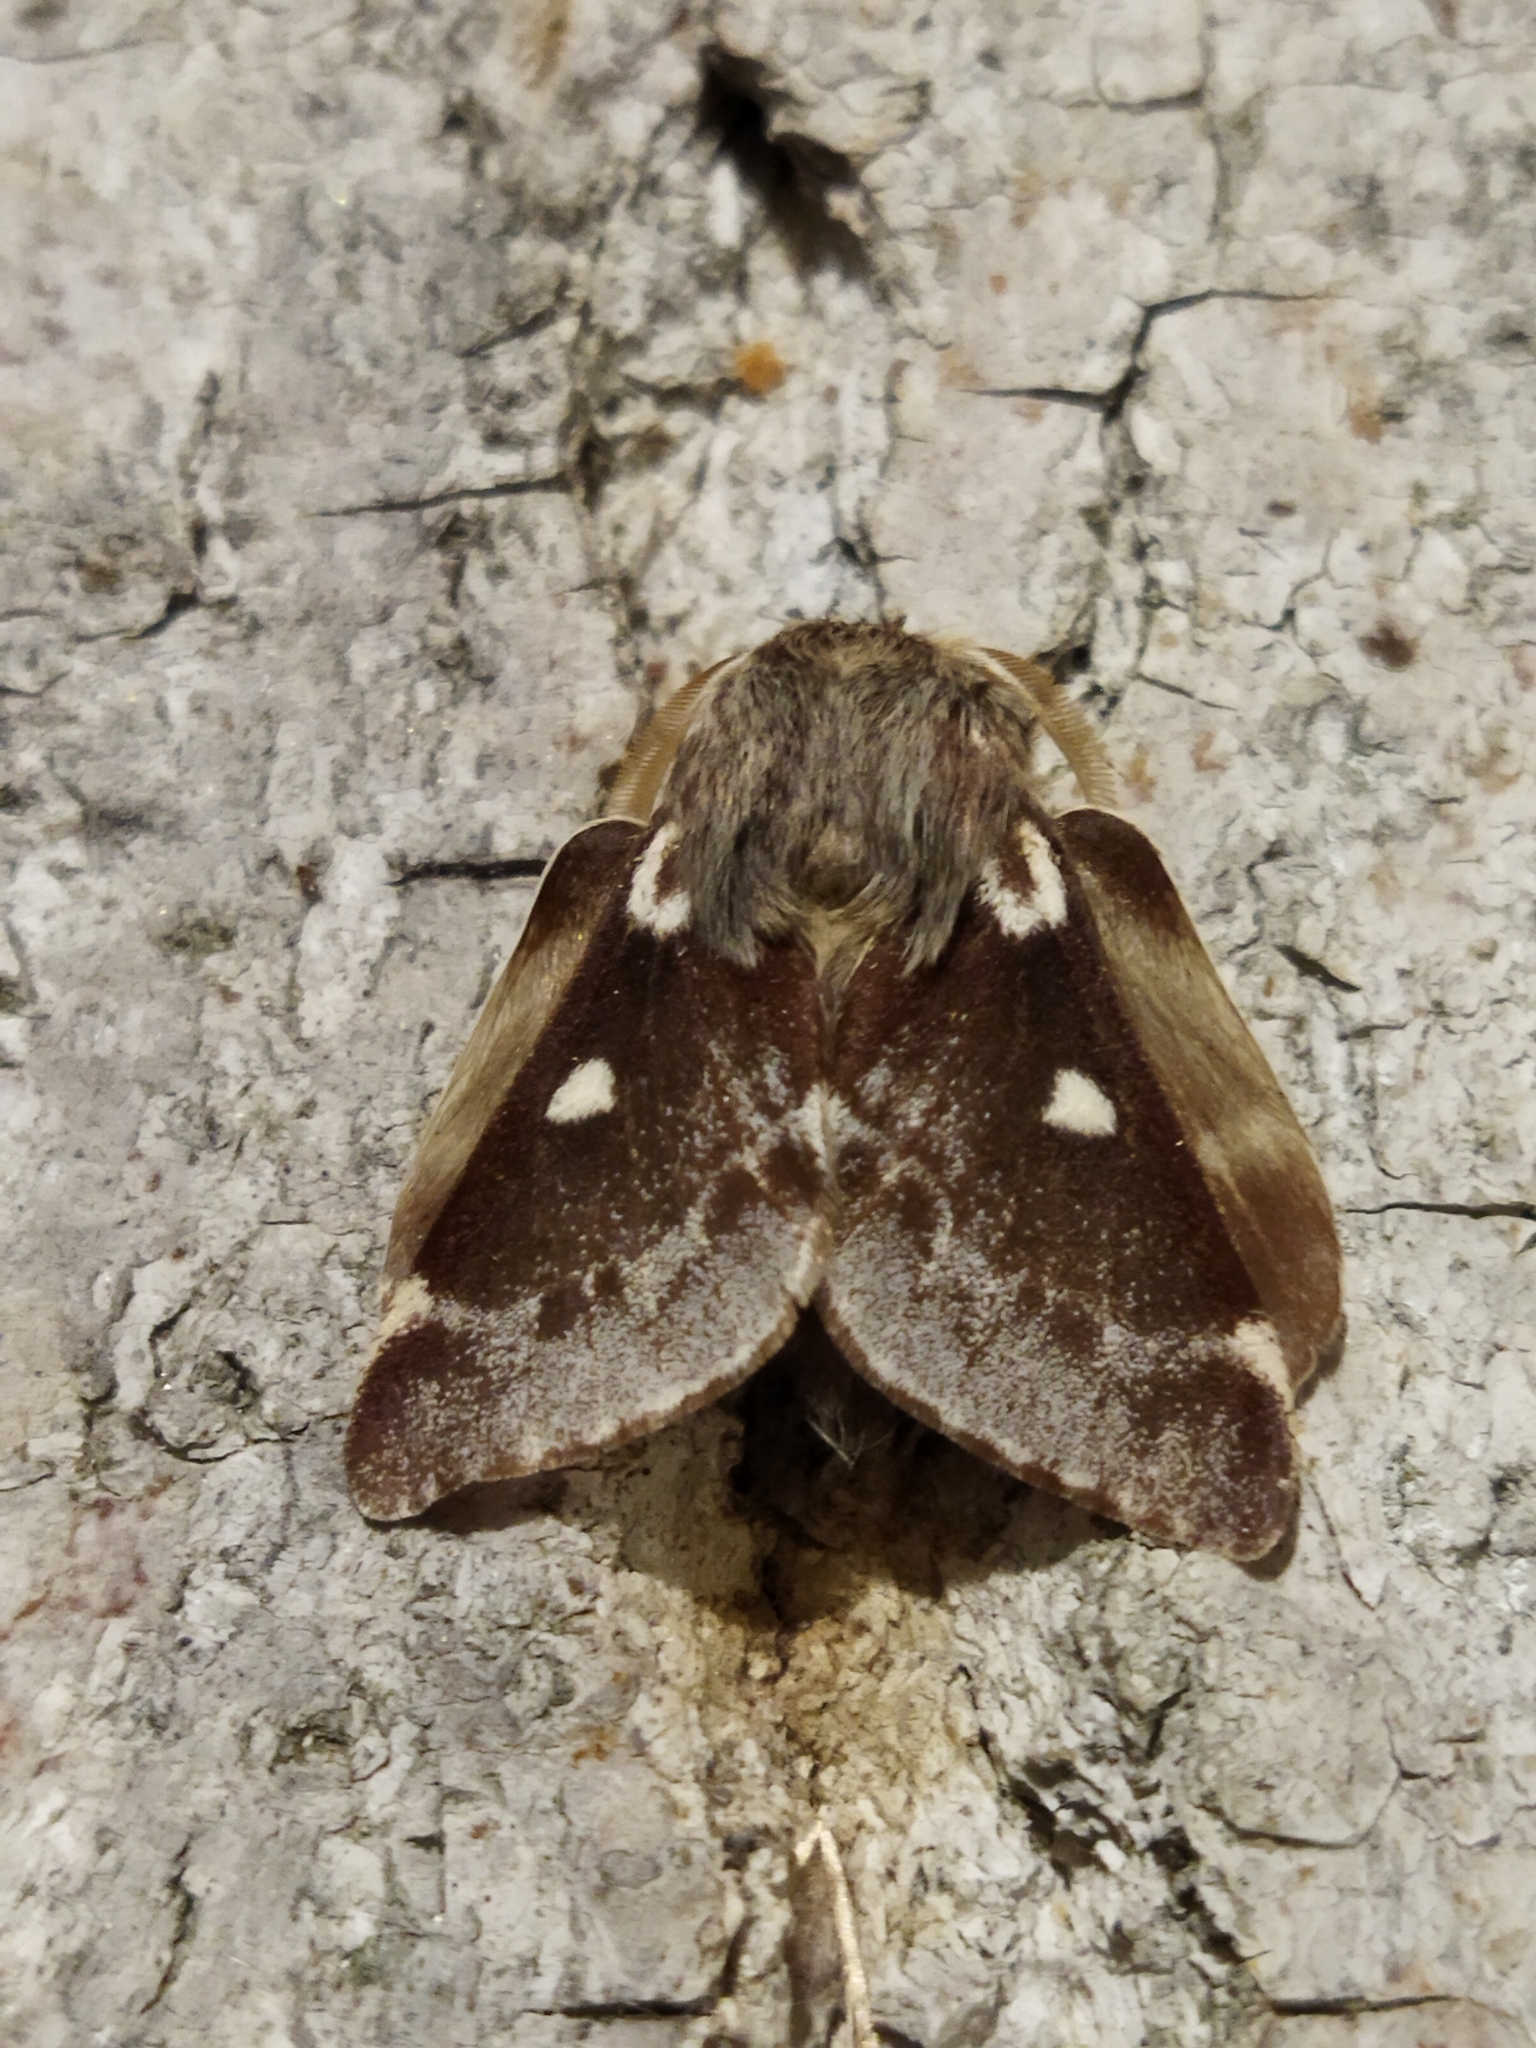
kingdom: Animalia
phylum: Arthropoda
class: Insecta
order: Lepidoptera
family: Lasiocampidae
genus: Eriogaster
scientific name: Eriogaster lanestris
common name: Small eggar
